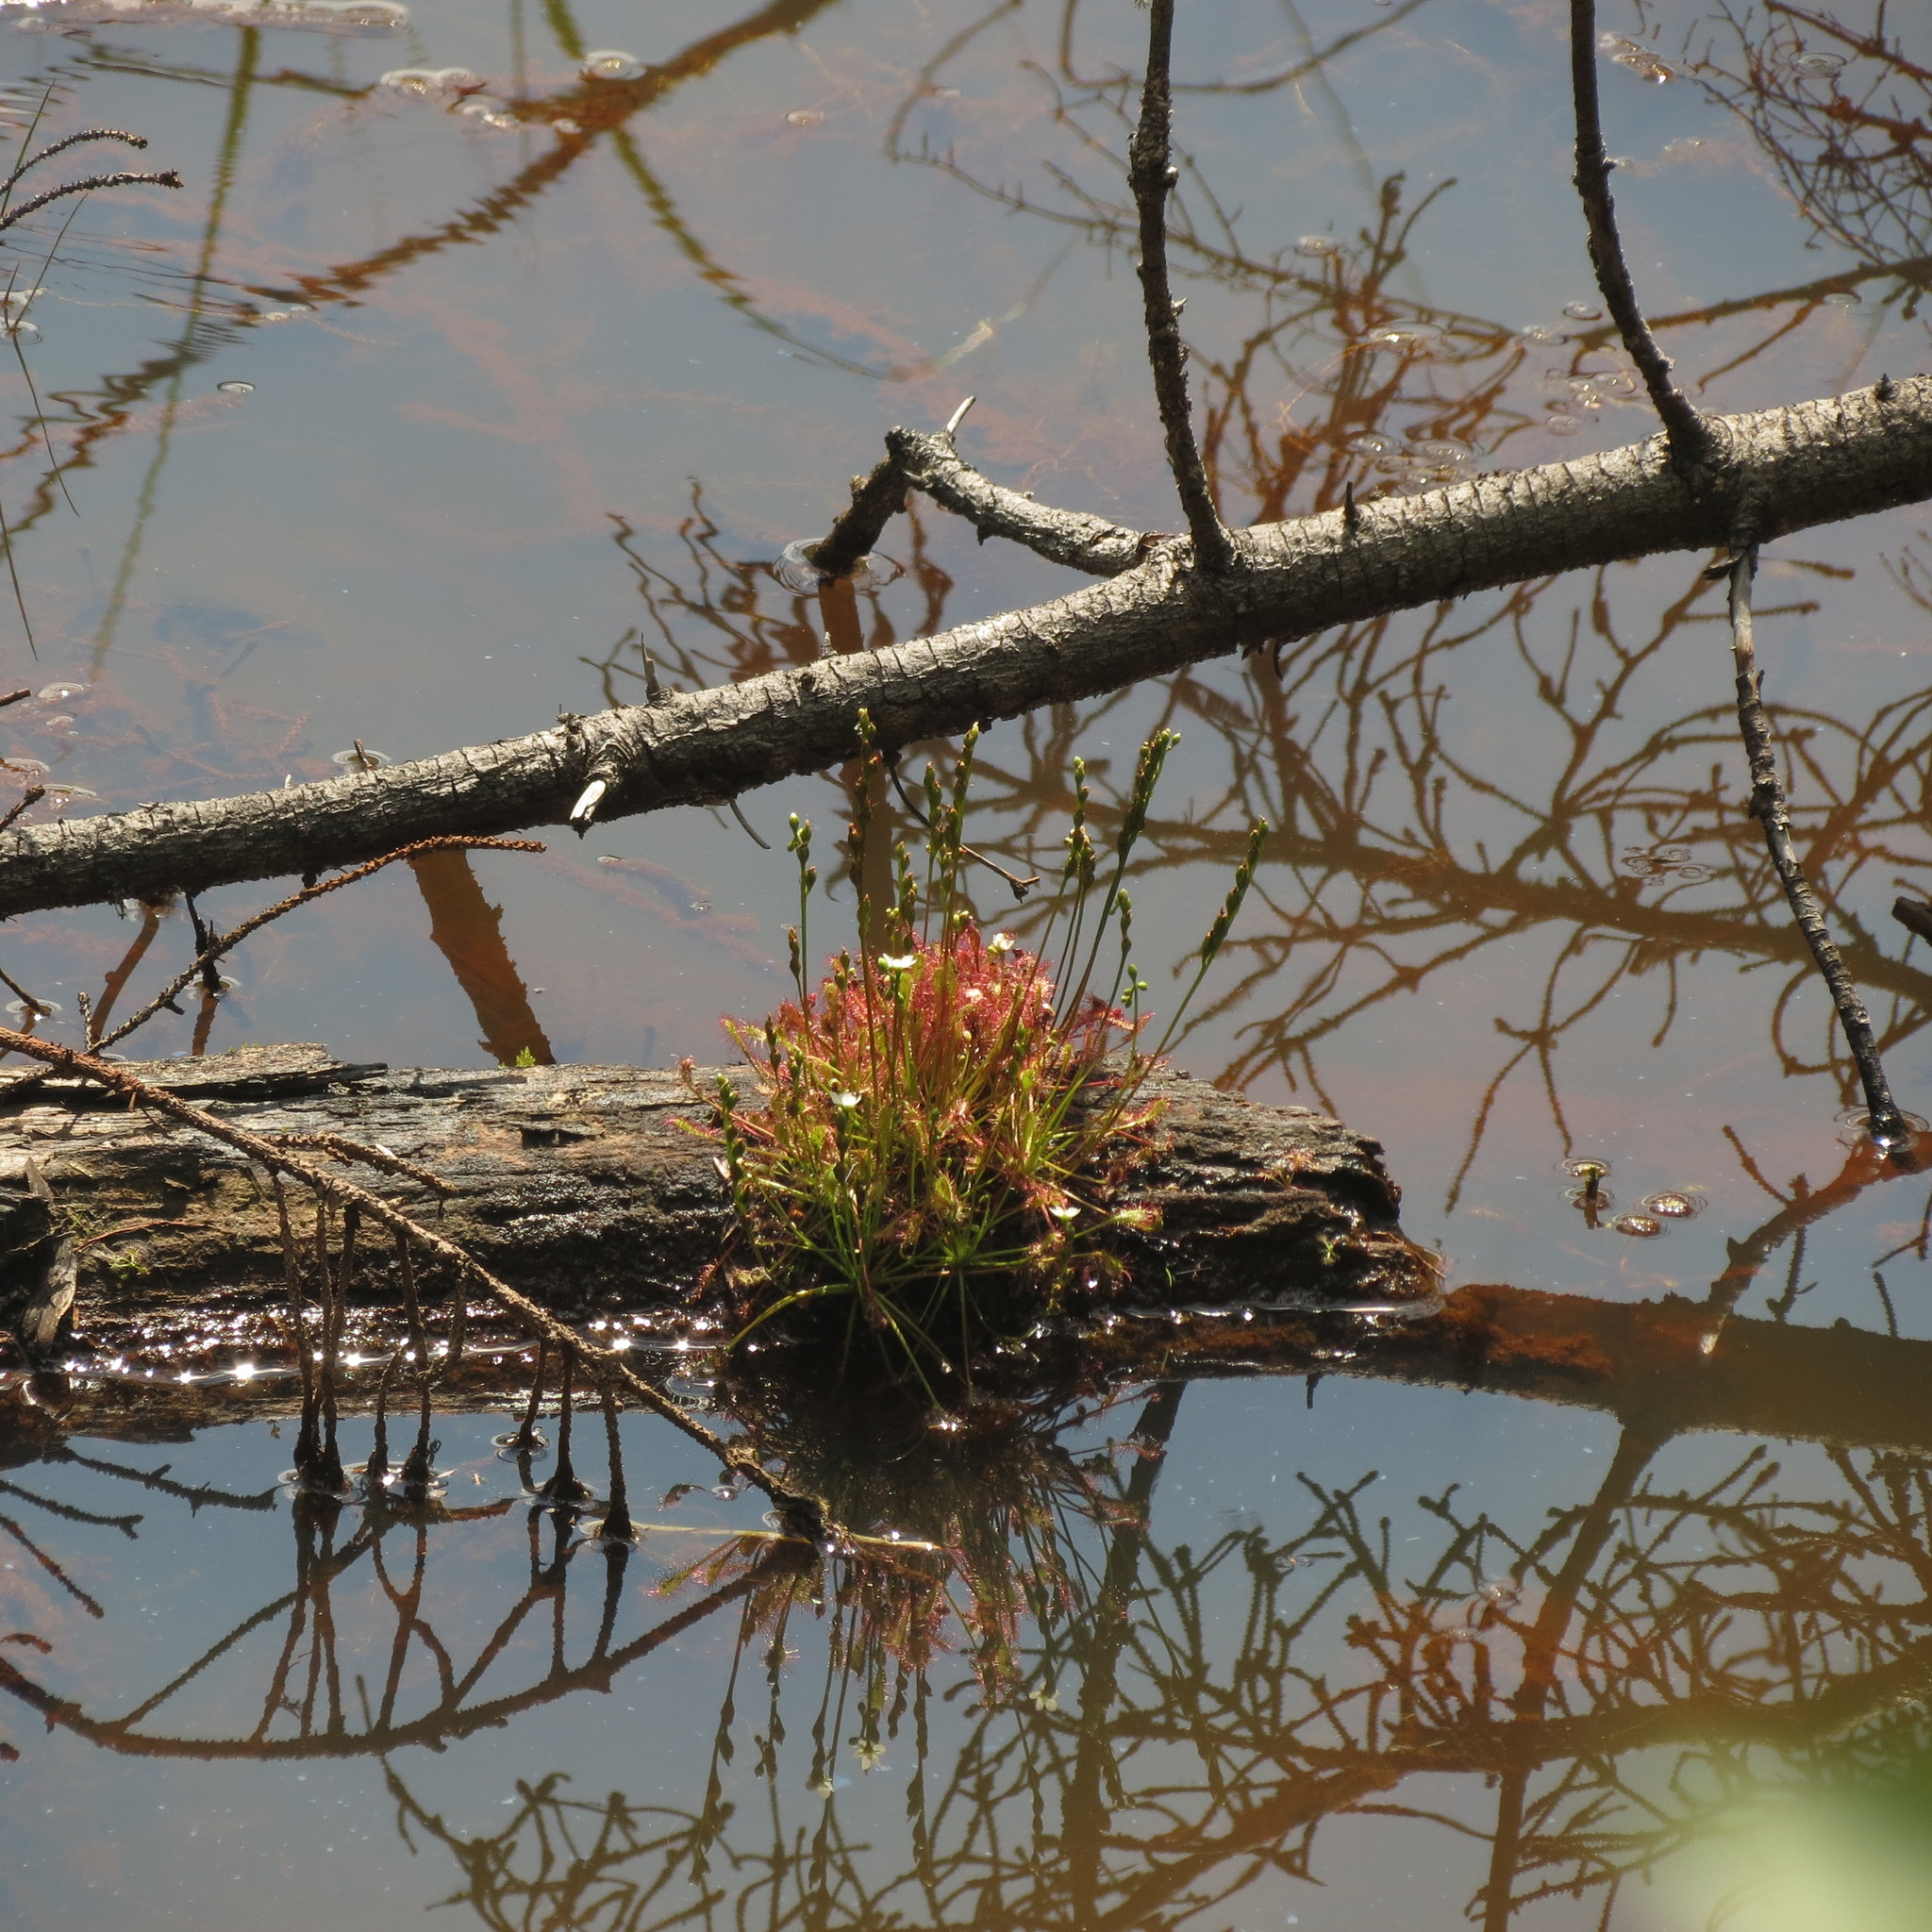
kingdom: Plantae
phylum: Tracheophyta
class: Magnoliopsida
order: Caryophyllales
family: Droseraceae
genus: Drosera
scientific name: Drosera intermedia
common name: Oblong-leaved sundew
